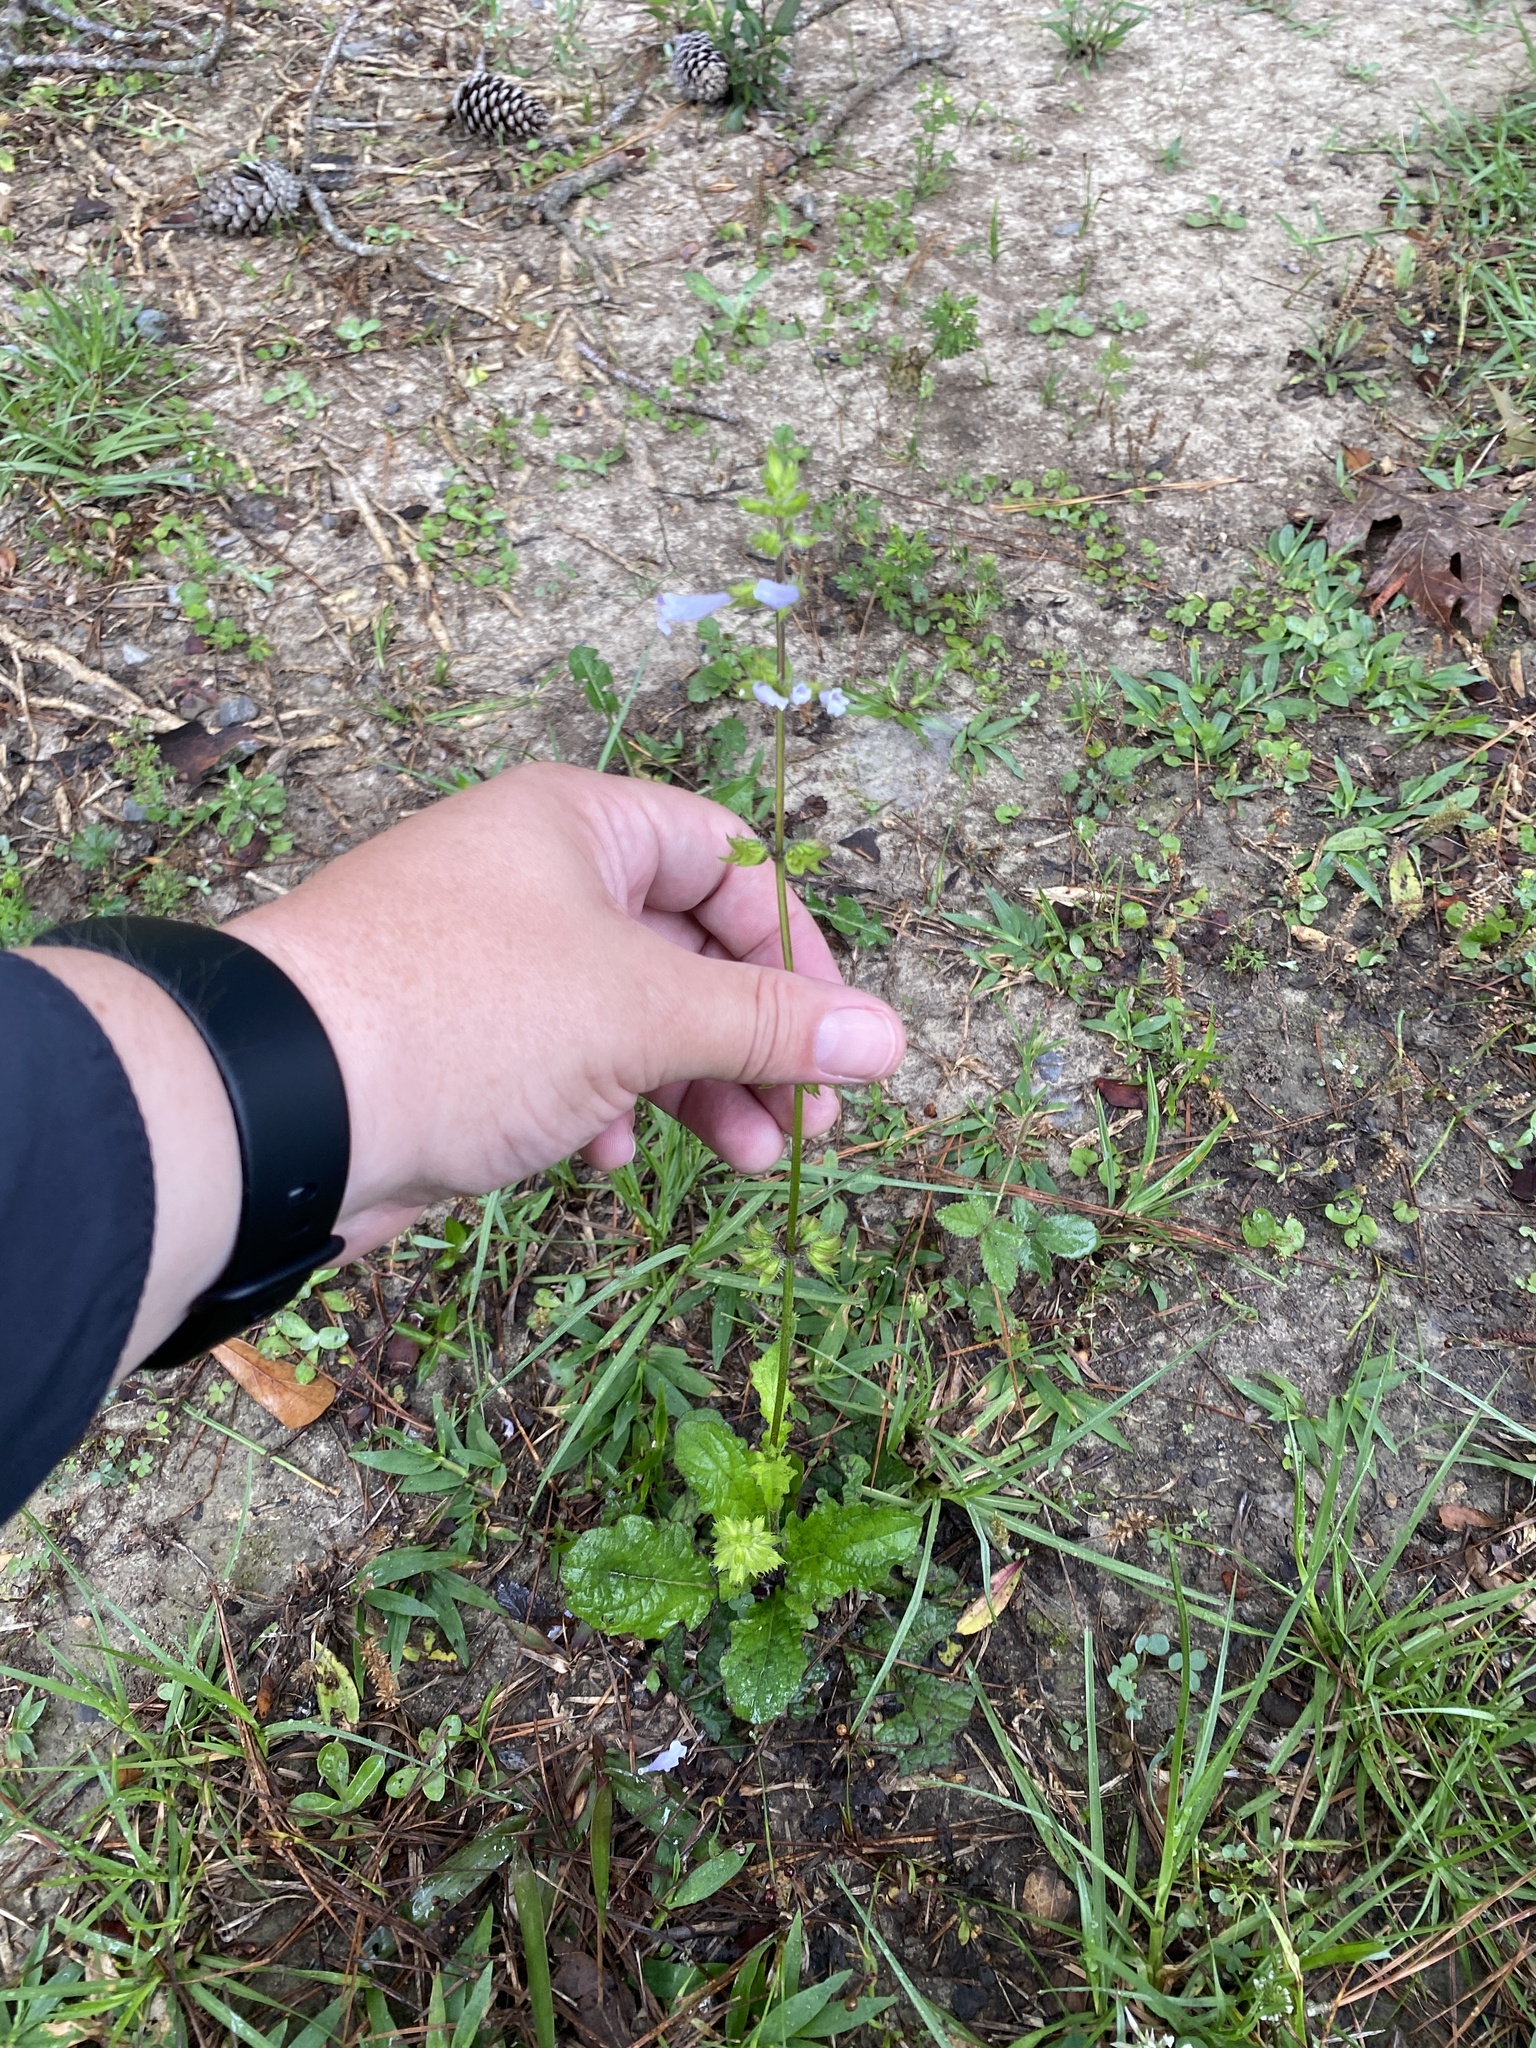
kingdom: Plantae
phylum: Tracheophyta
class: Magnoliopsida
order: Lamiales
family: Lamiaceae
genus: Salvia
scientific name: Salvia lyrata
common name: Cancerweed
